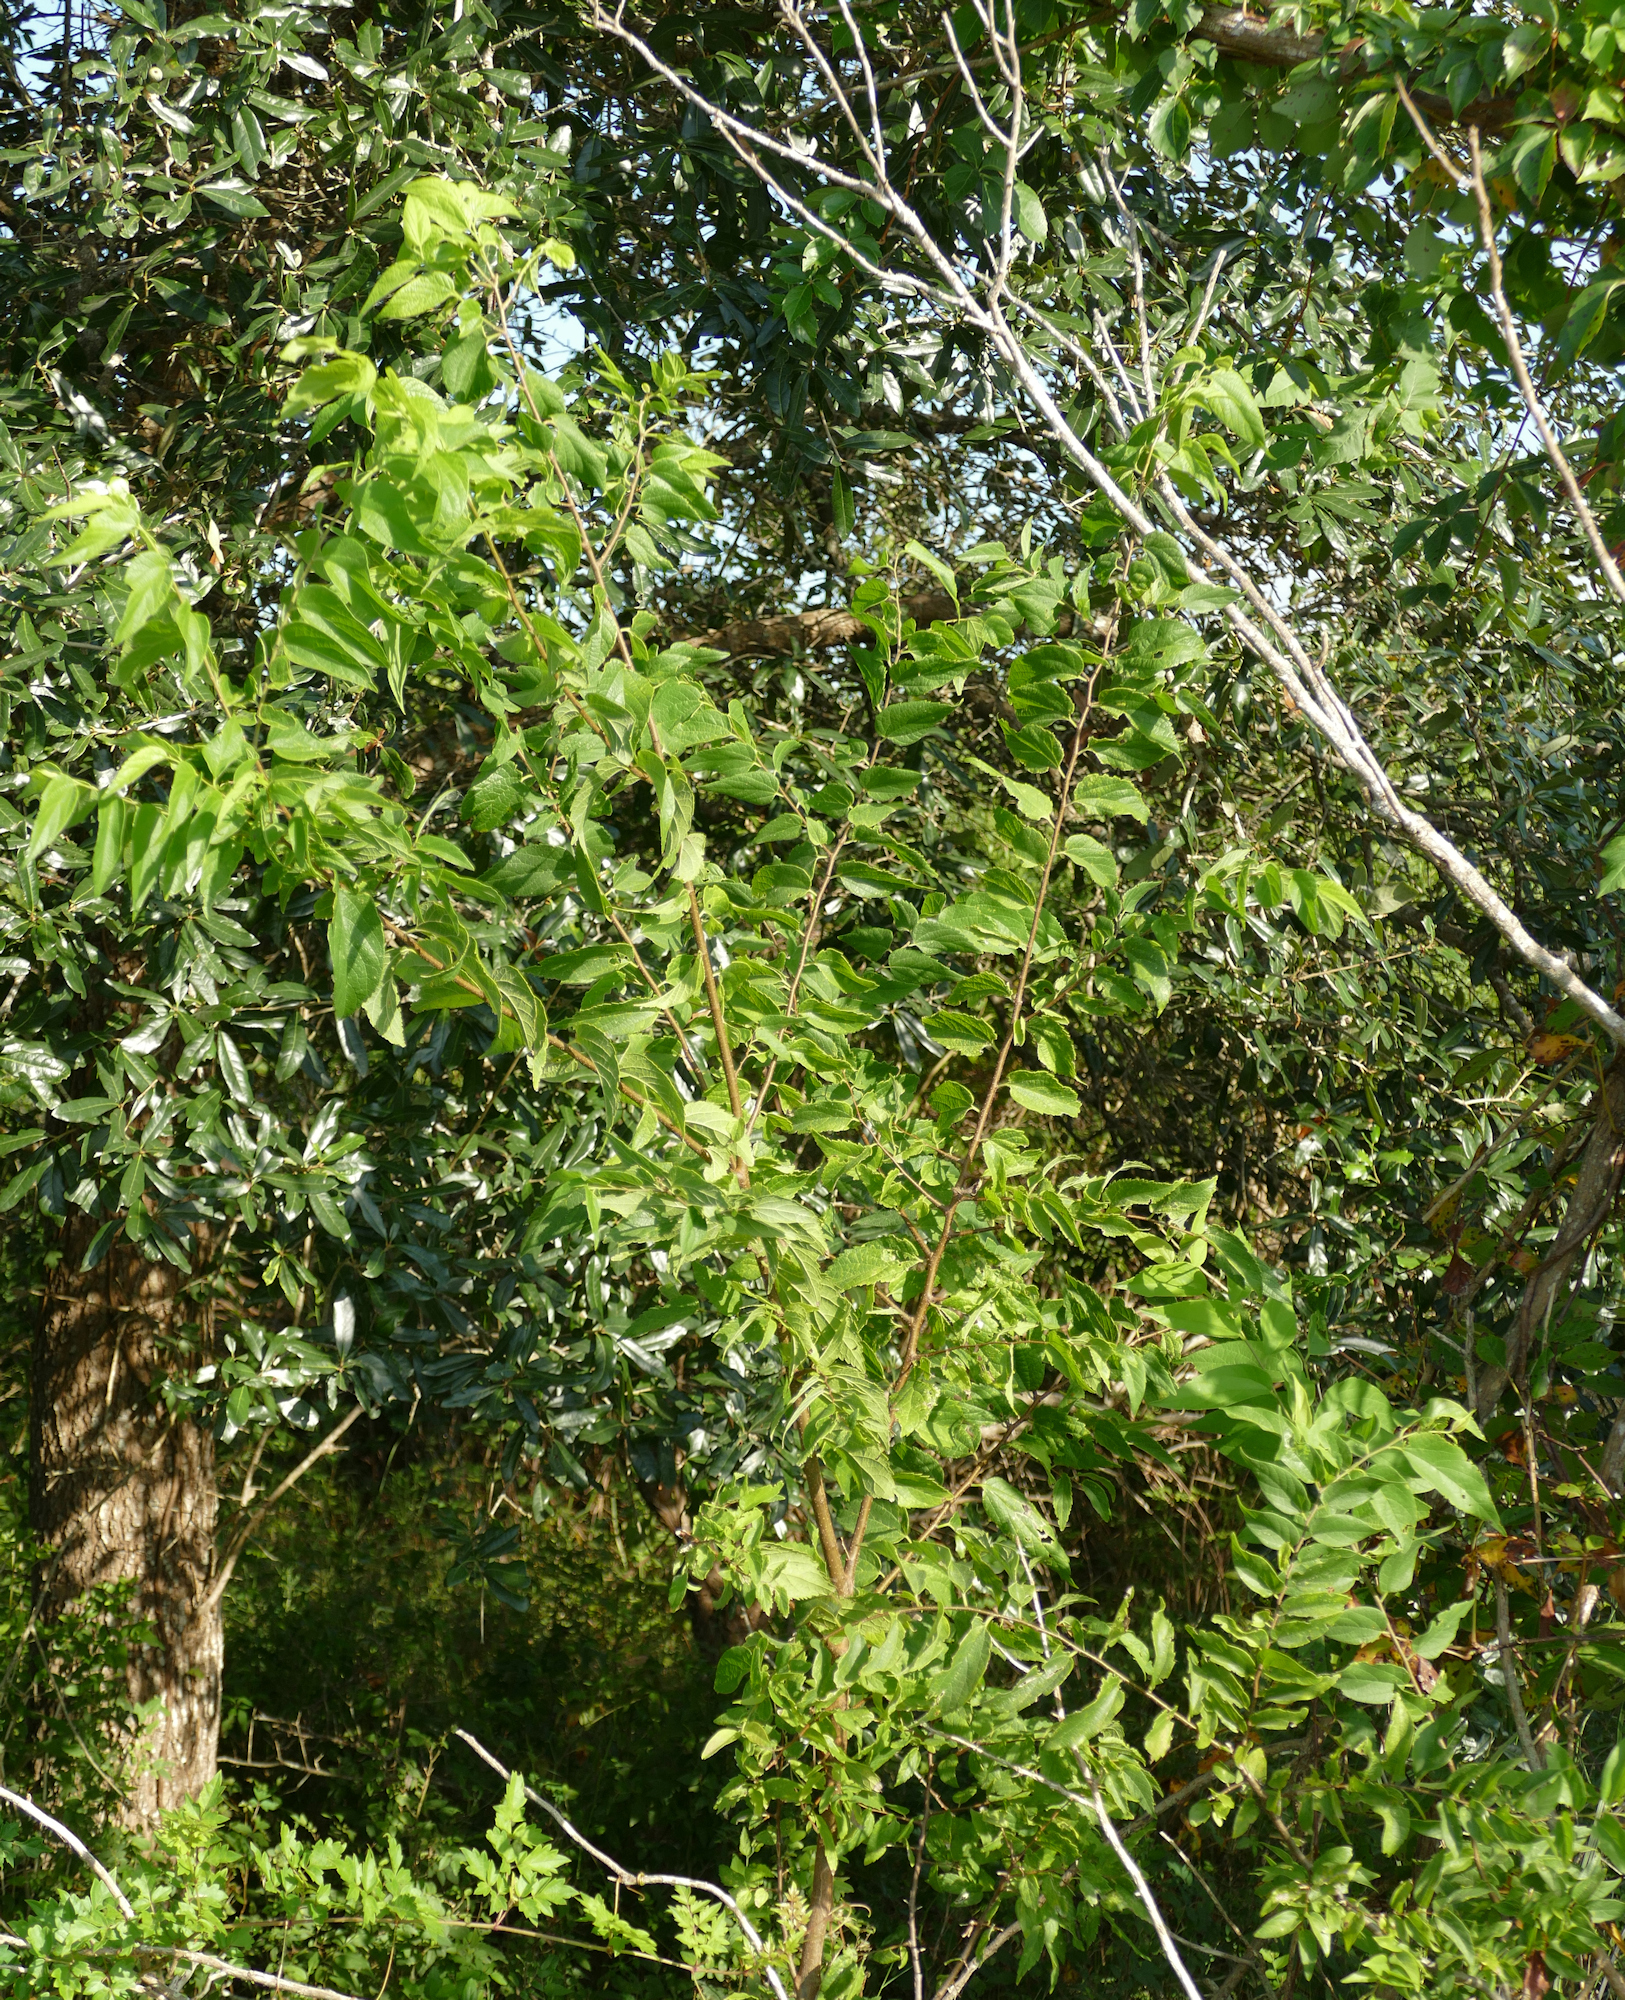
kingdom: Plantae
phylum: Tracheophyta
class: Magnoliopsida
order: Rosales
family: Cannabaceae
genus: Celtis
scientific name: Celtis laevigata
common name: Sugarberry
